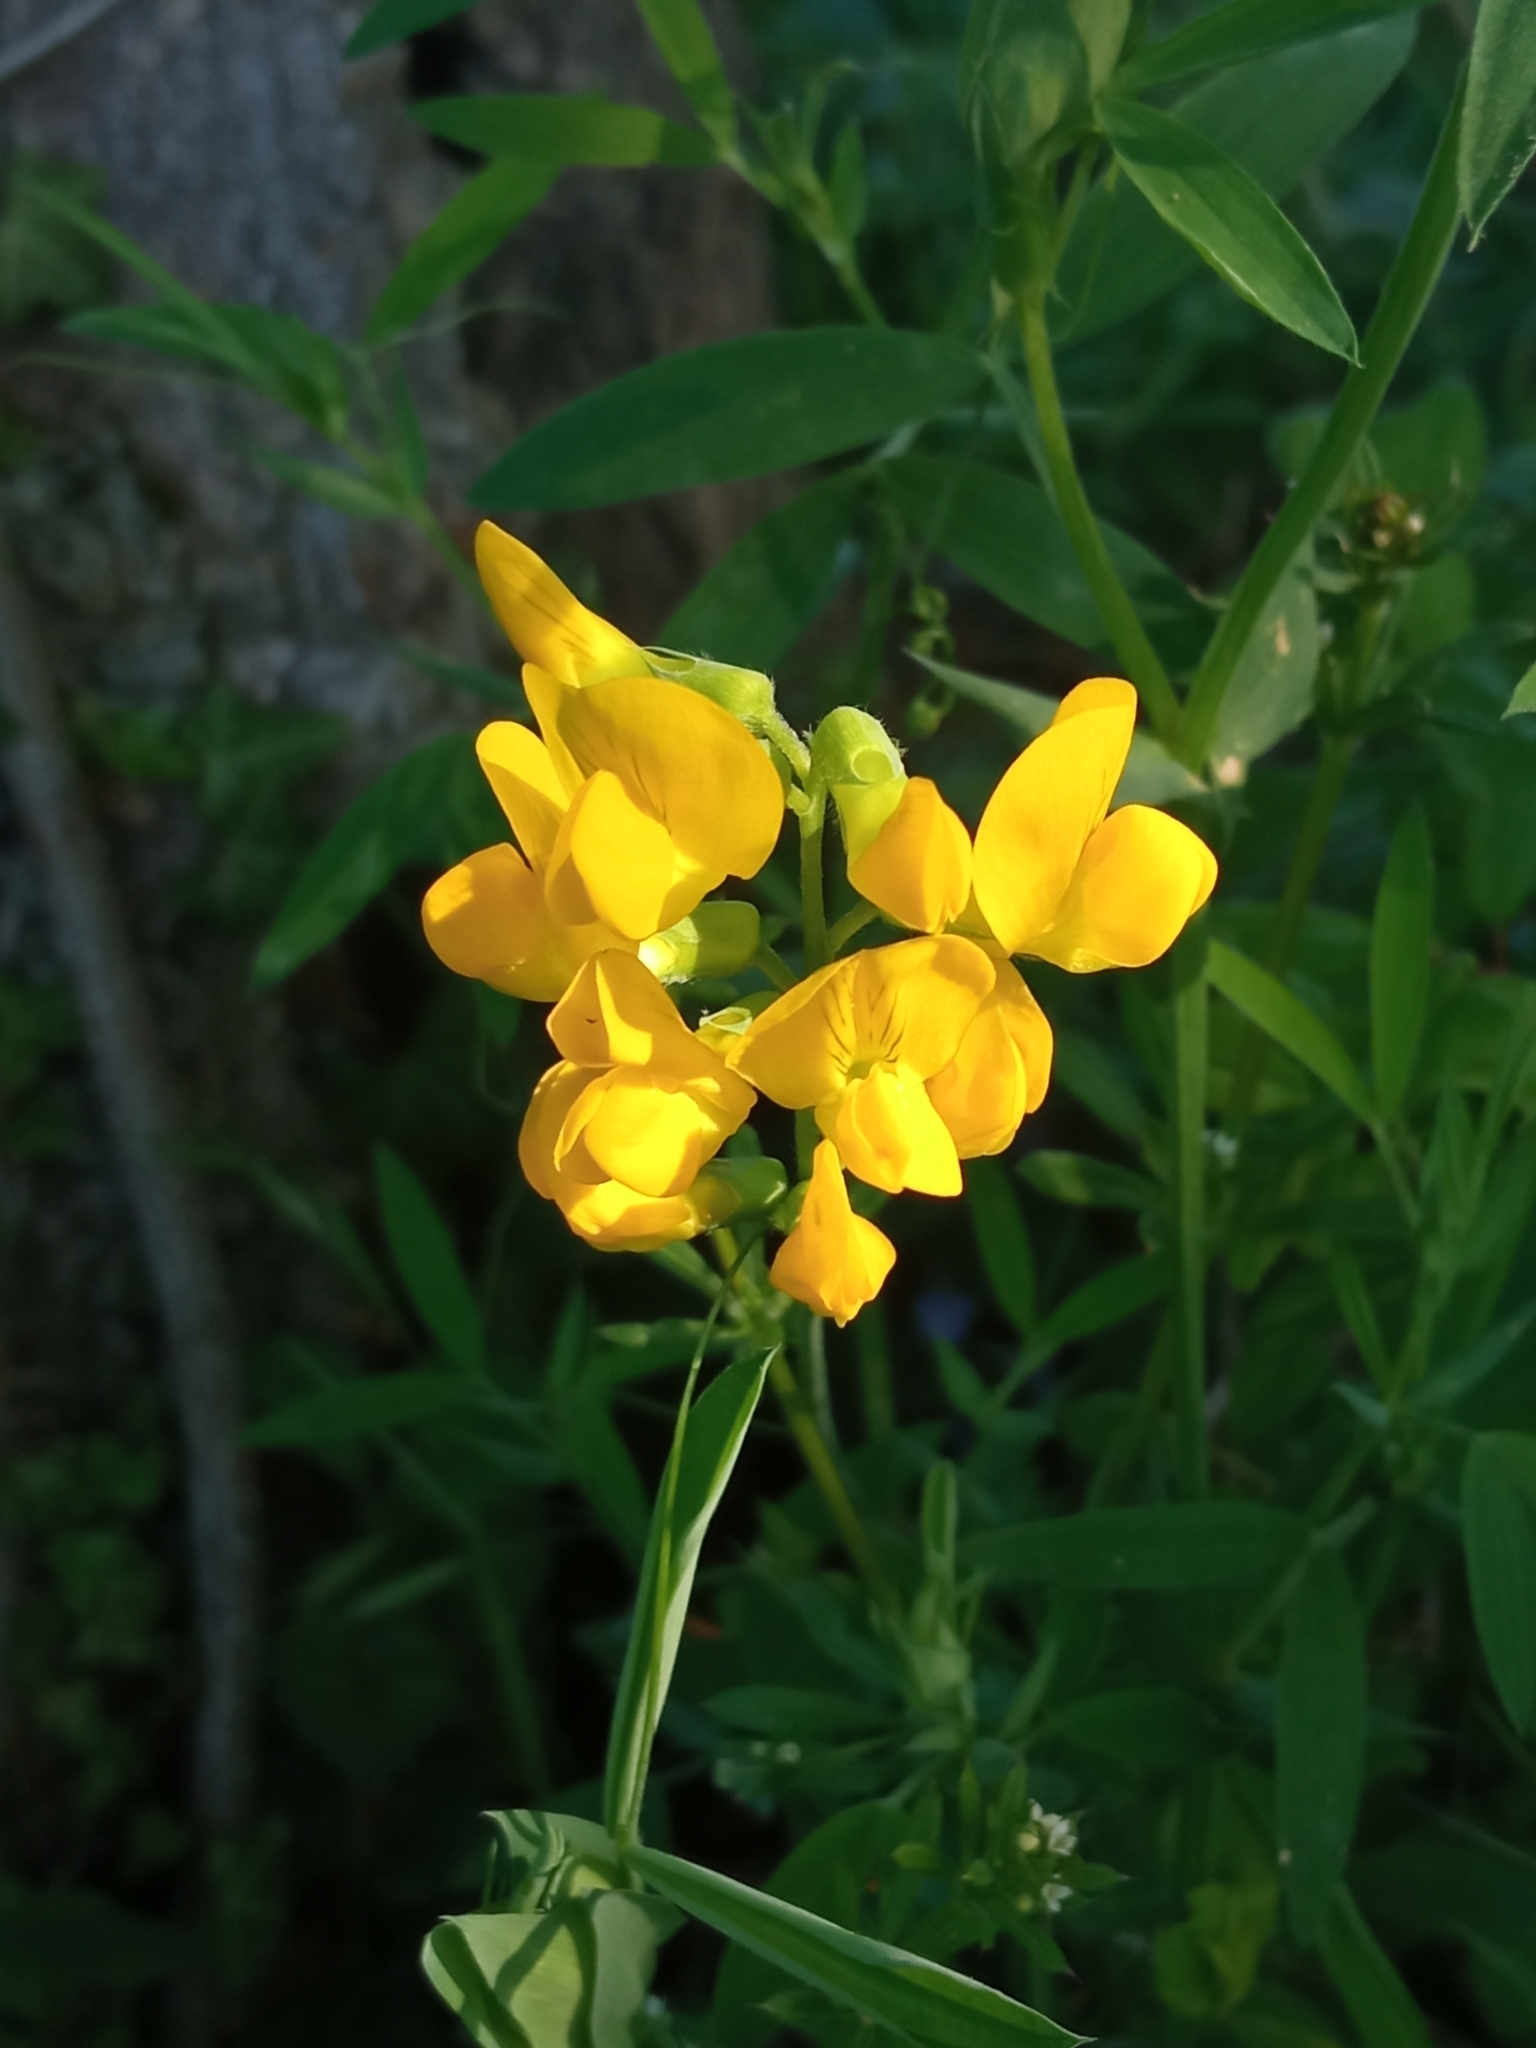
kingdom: Plantae
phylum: Tracheophyta
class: Magnoliopsida
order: Fabales
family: Fabaceae
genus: Lathyrus
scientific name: Lathyrus pratensis
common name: Meadow vetchling
